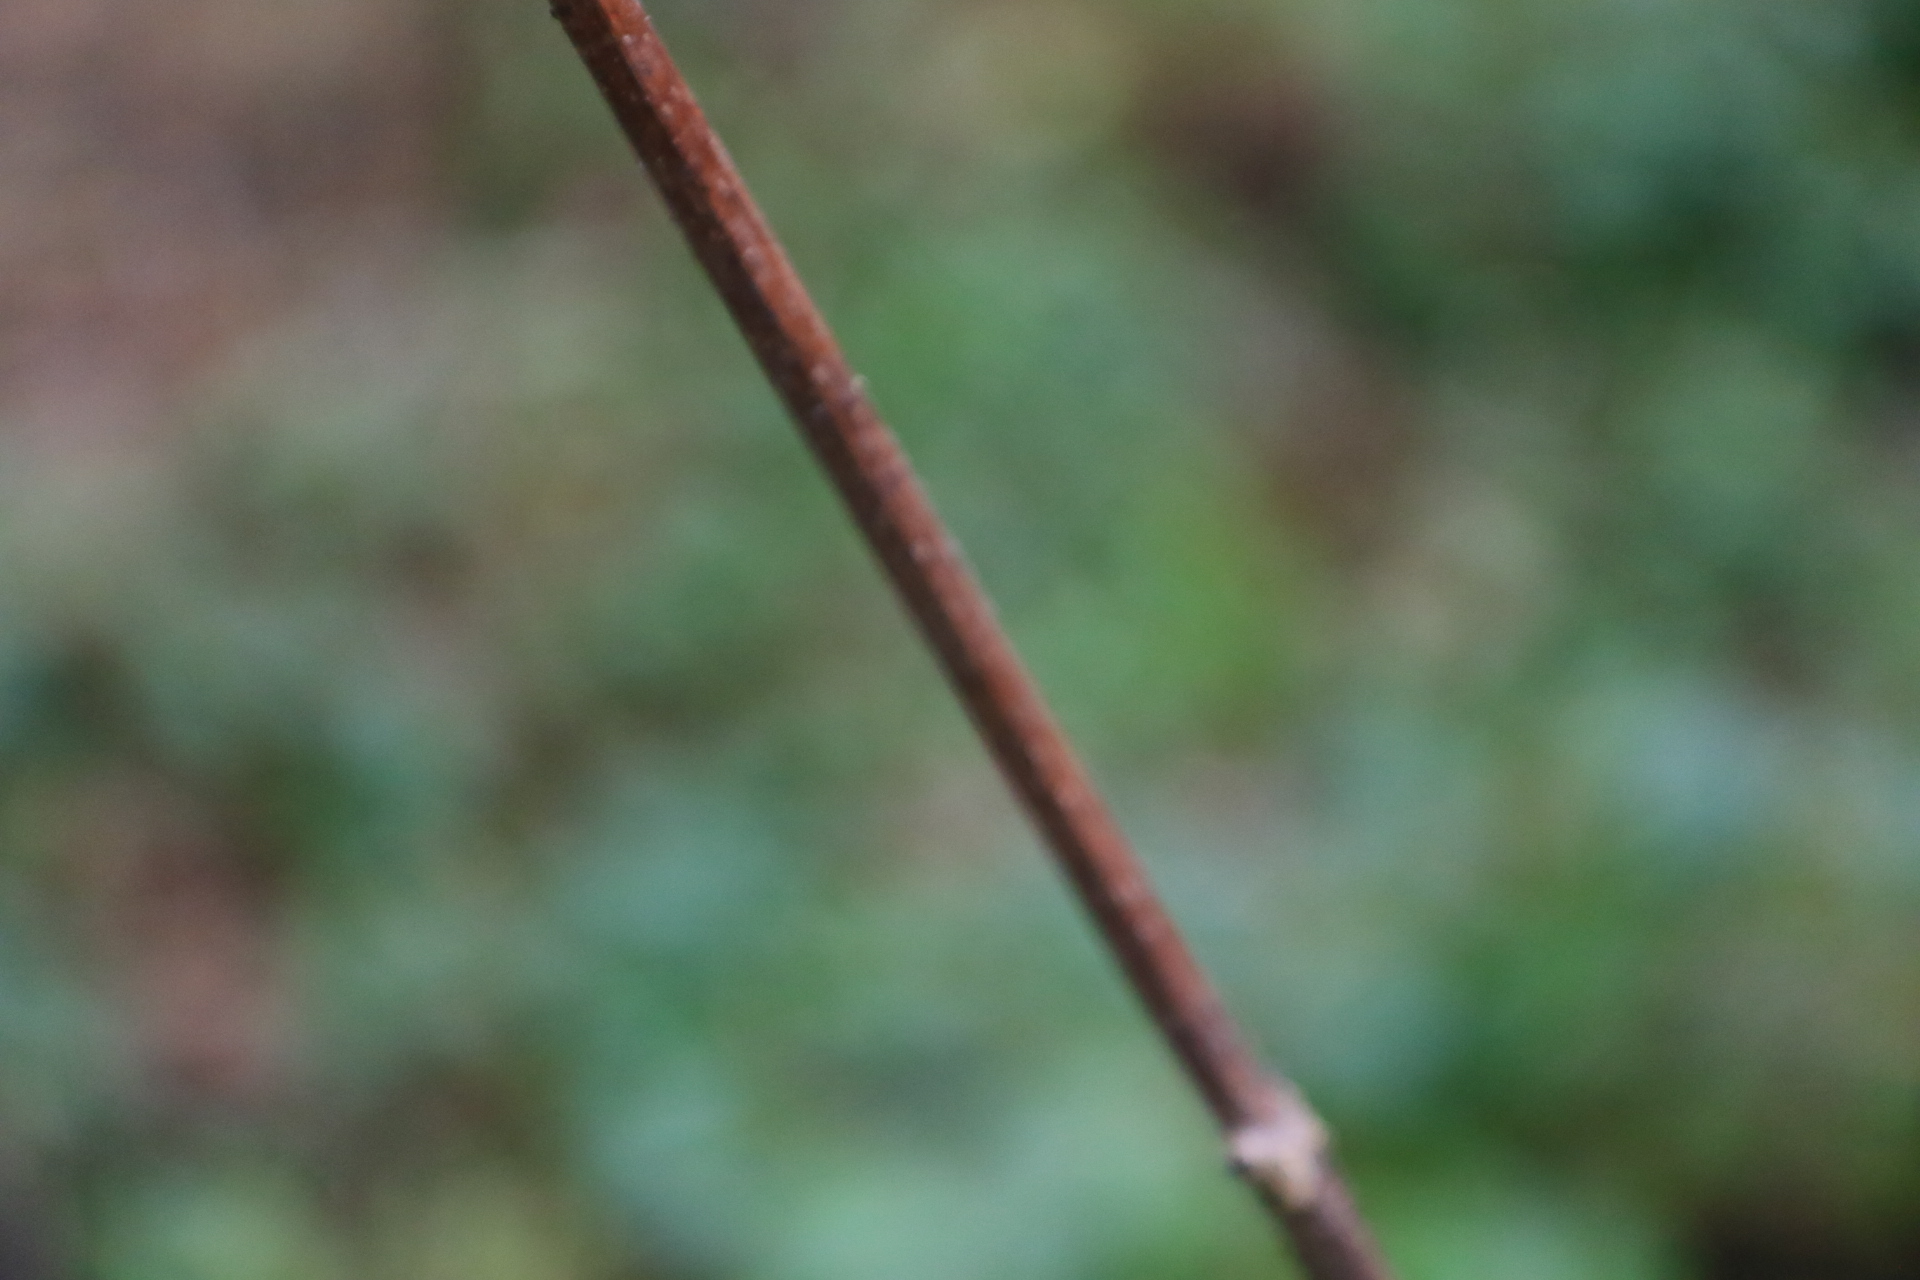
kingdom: Plantae
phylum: Tracheophyta
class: Magnoliopsida
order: Dipsacales
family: Viburnaceae
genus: Sambucus
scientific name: Sambucus racemosa
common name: Red-berried elder
